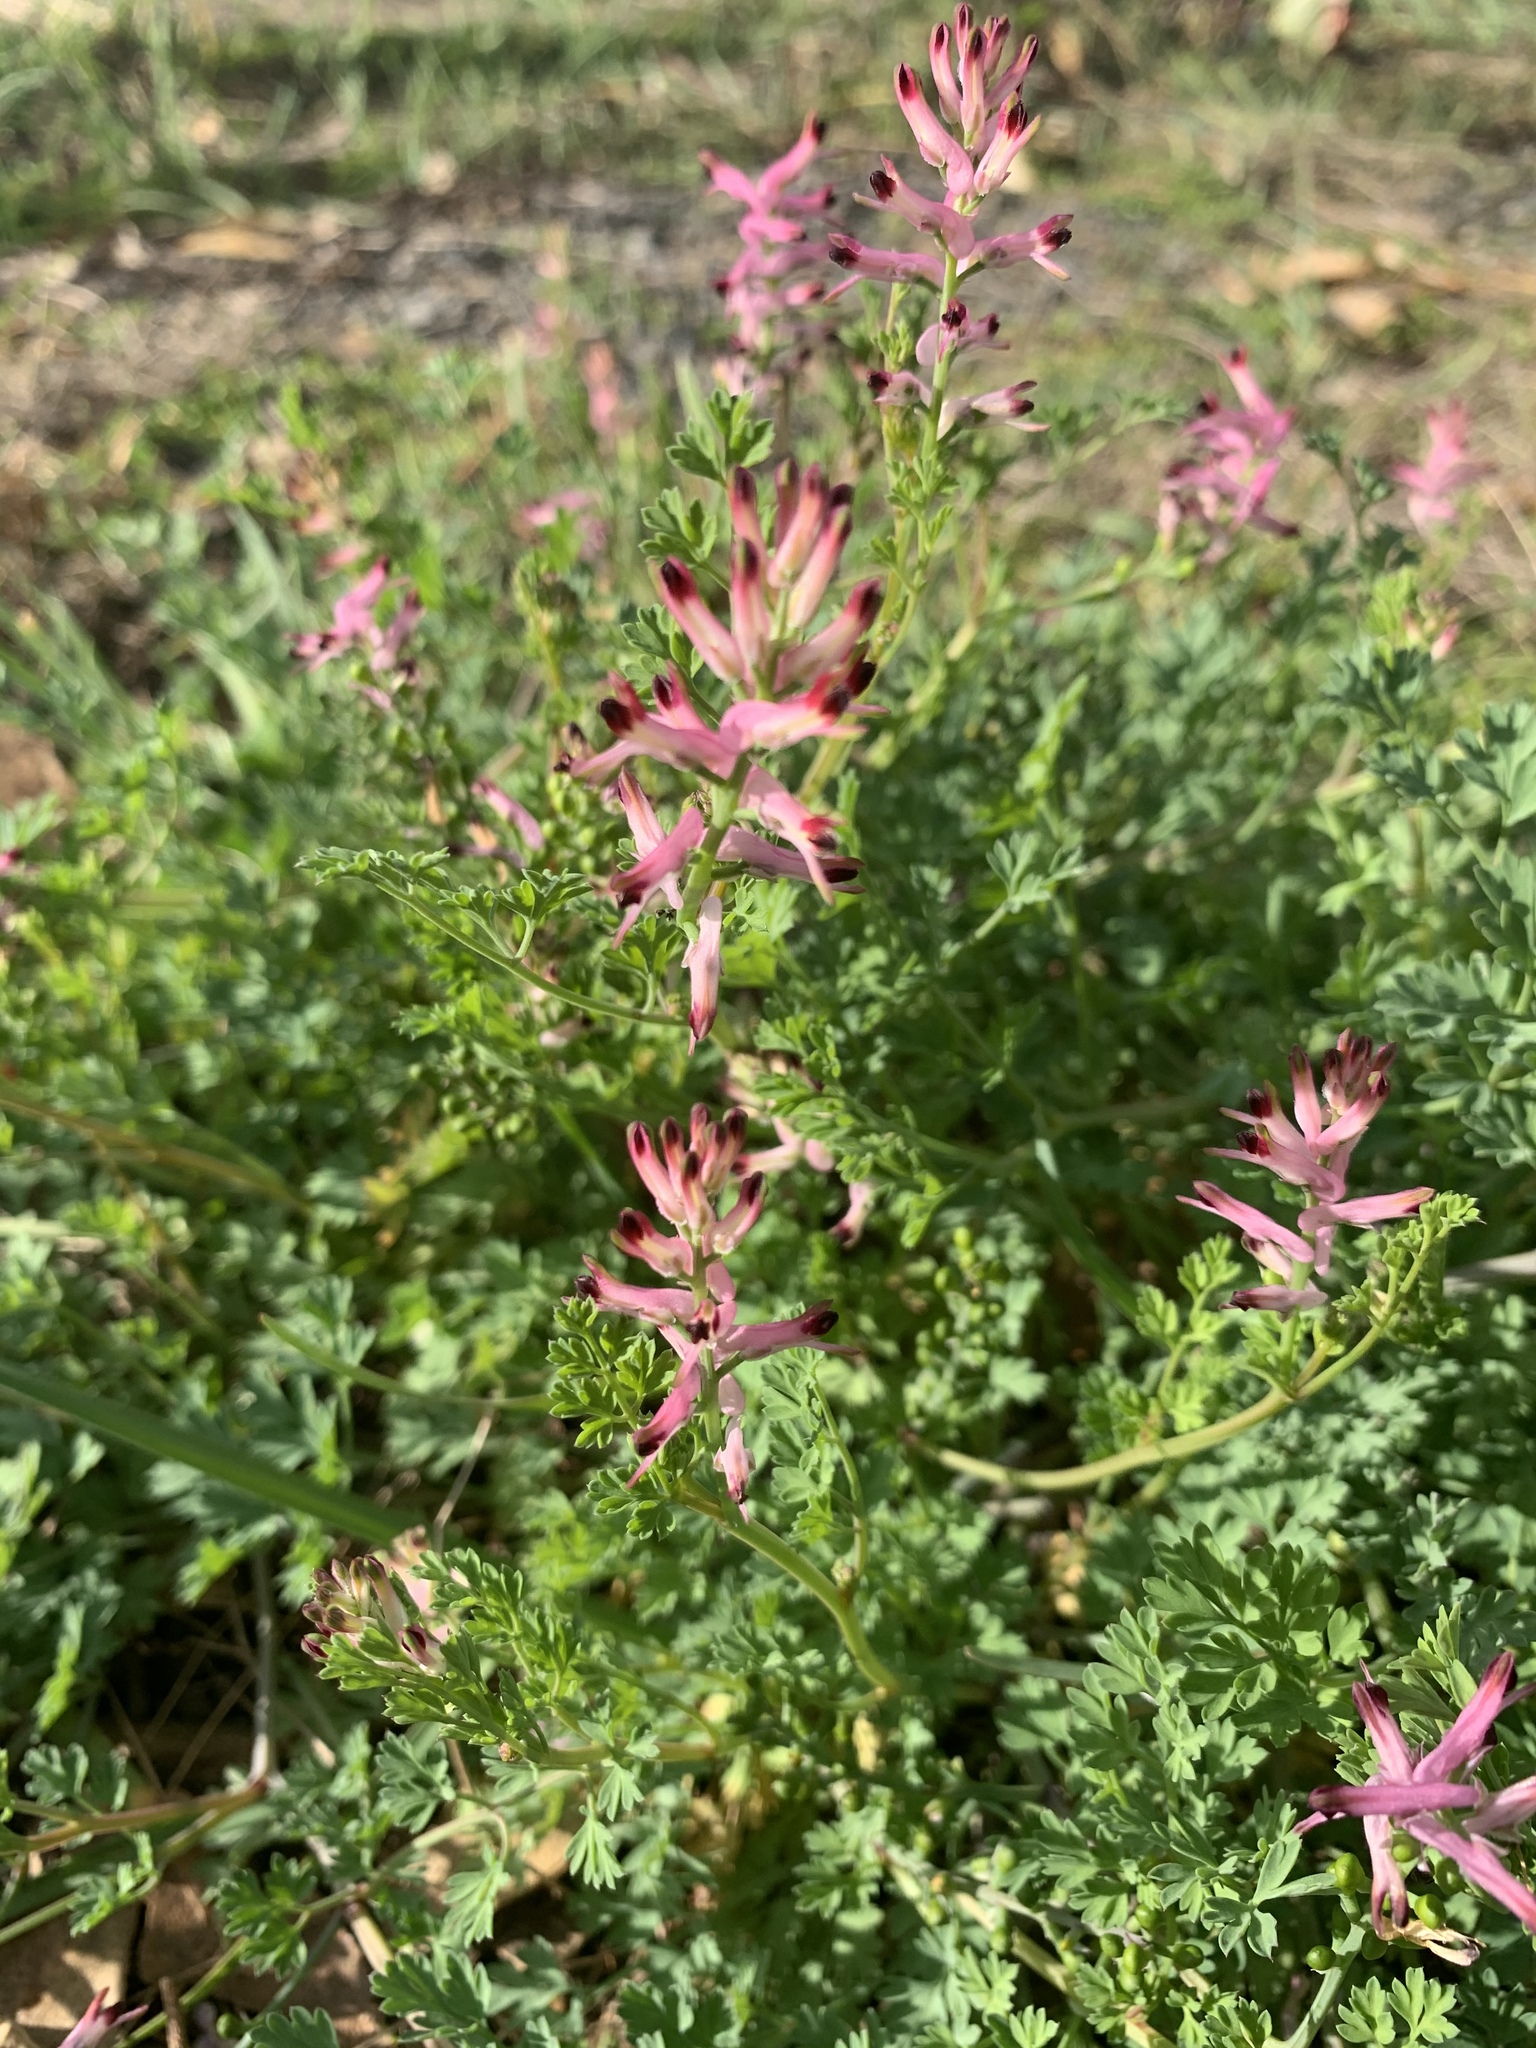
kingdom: Plantae
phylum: Tracheophyta
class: Magnoliopsida
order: Ranunculales
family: Papaveraceae
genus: Fumaria
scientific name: Fumaria bastardii
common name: Tall ramping-fumitory
